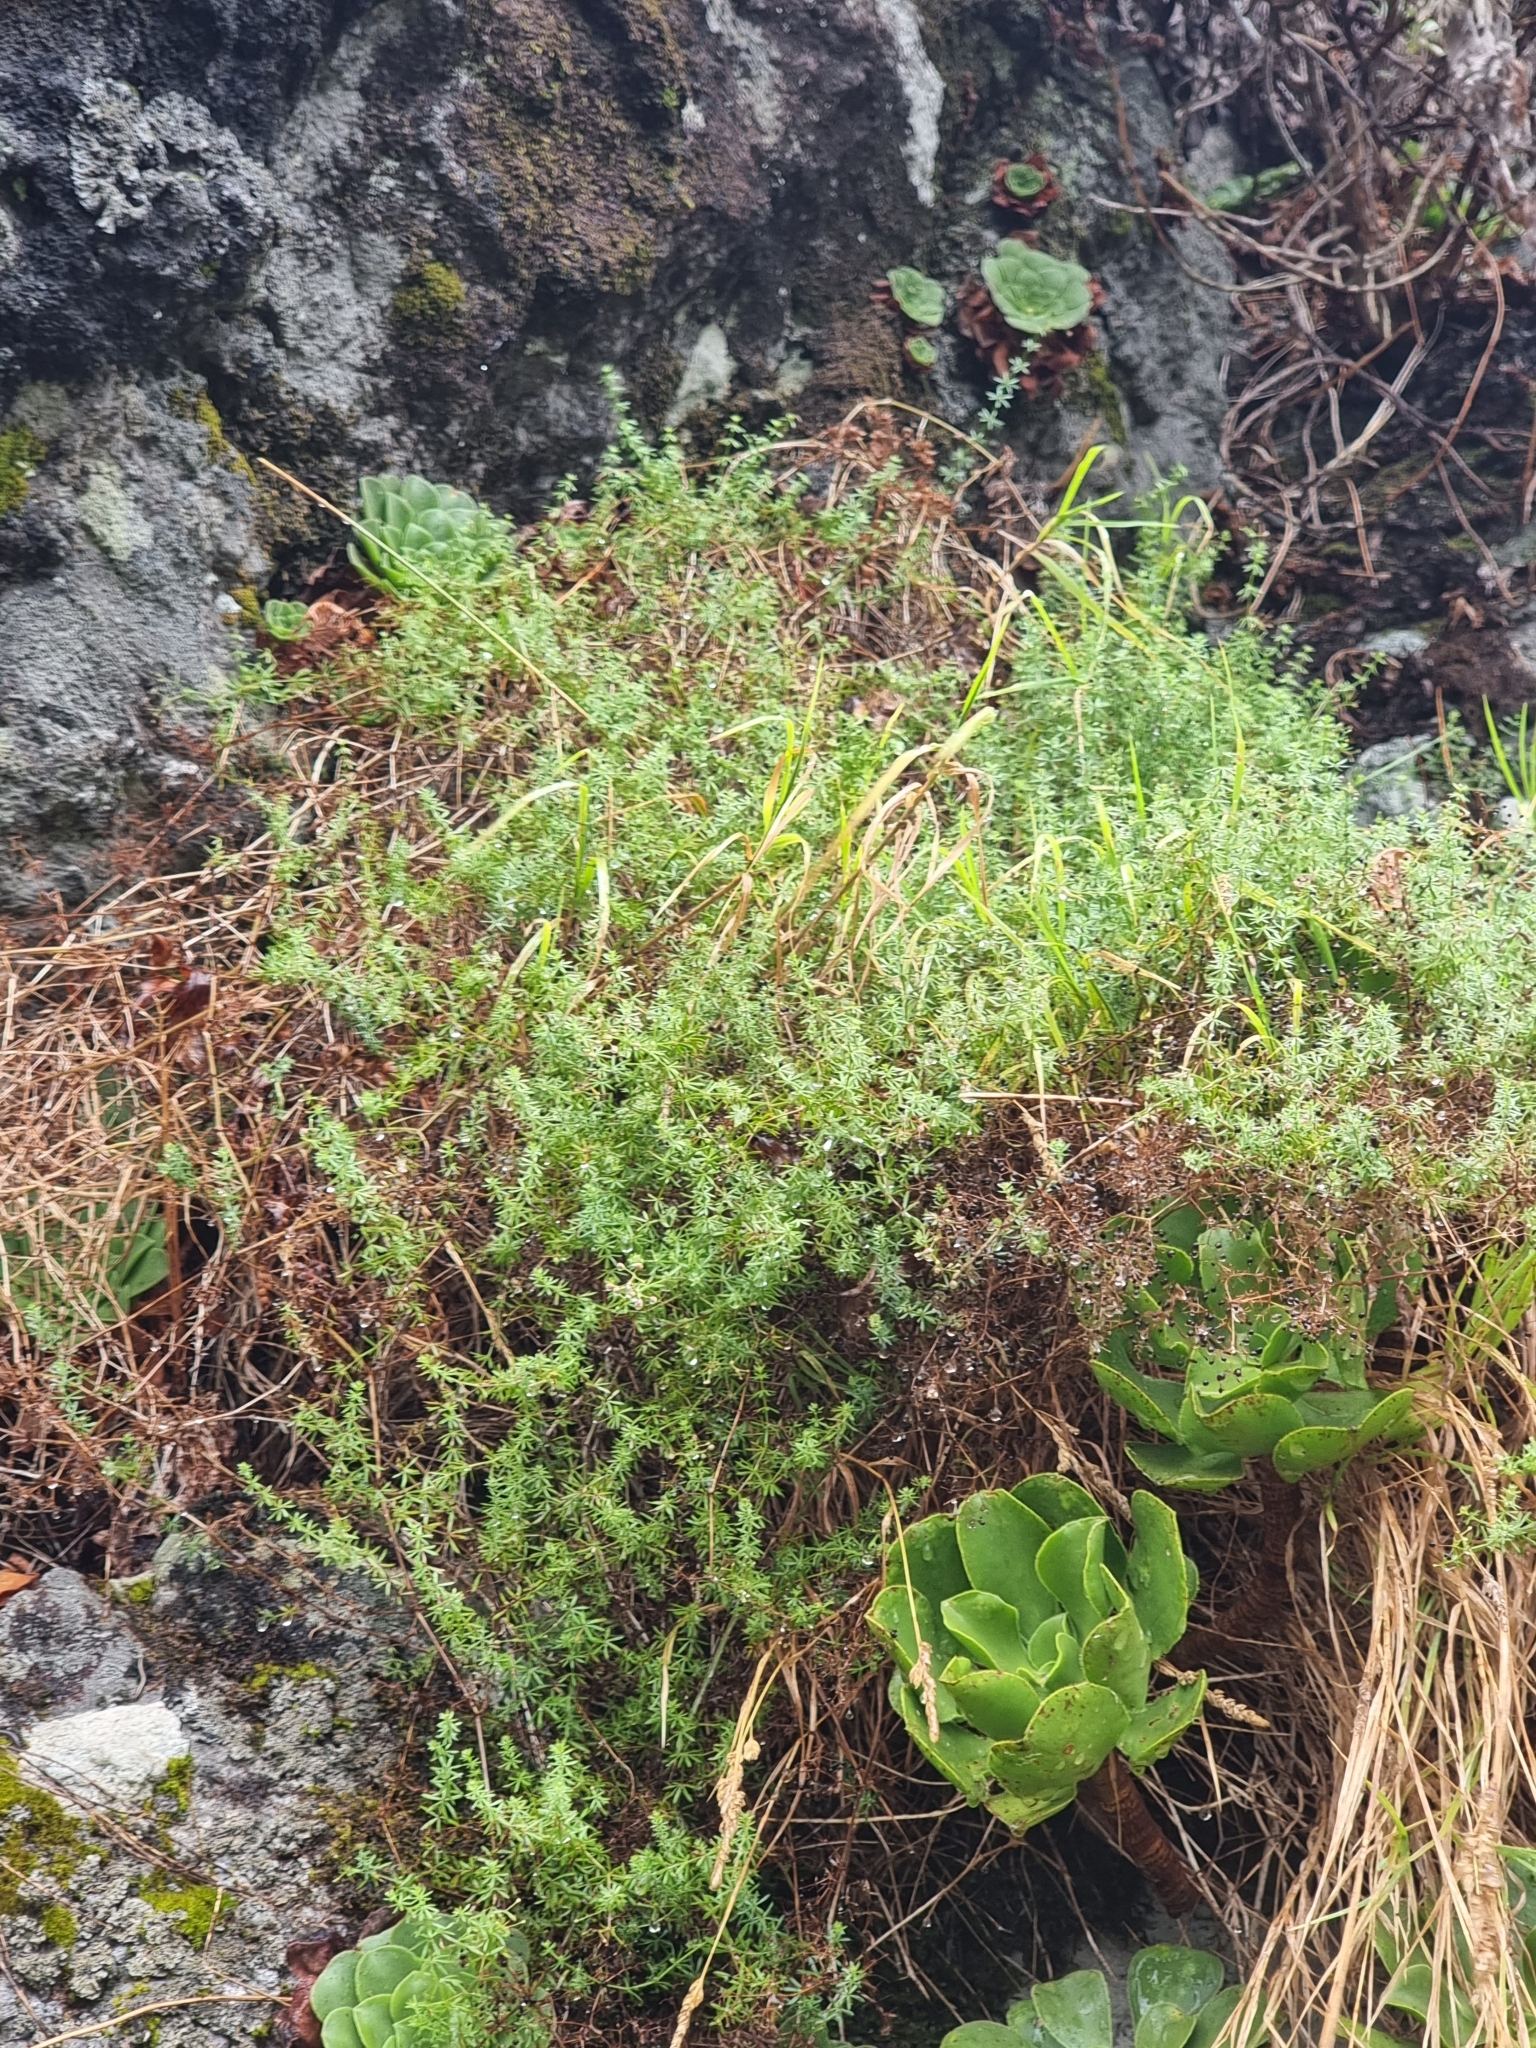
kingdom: Plantae
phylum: Tracheophyta
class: Magnoliopsida
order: Gentianales
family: Rubiaceae
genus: Galium
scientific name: Galium productum
